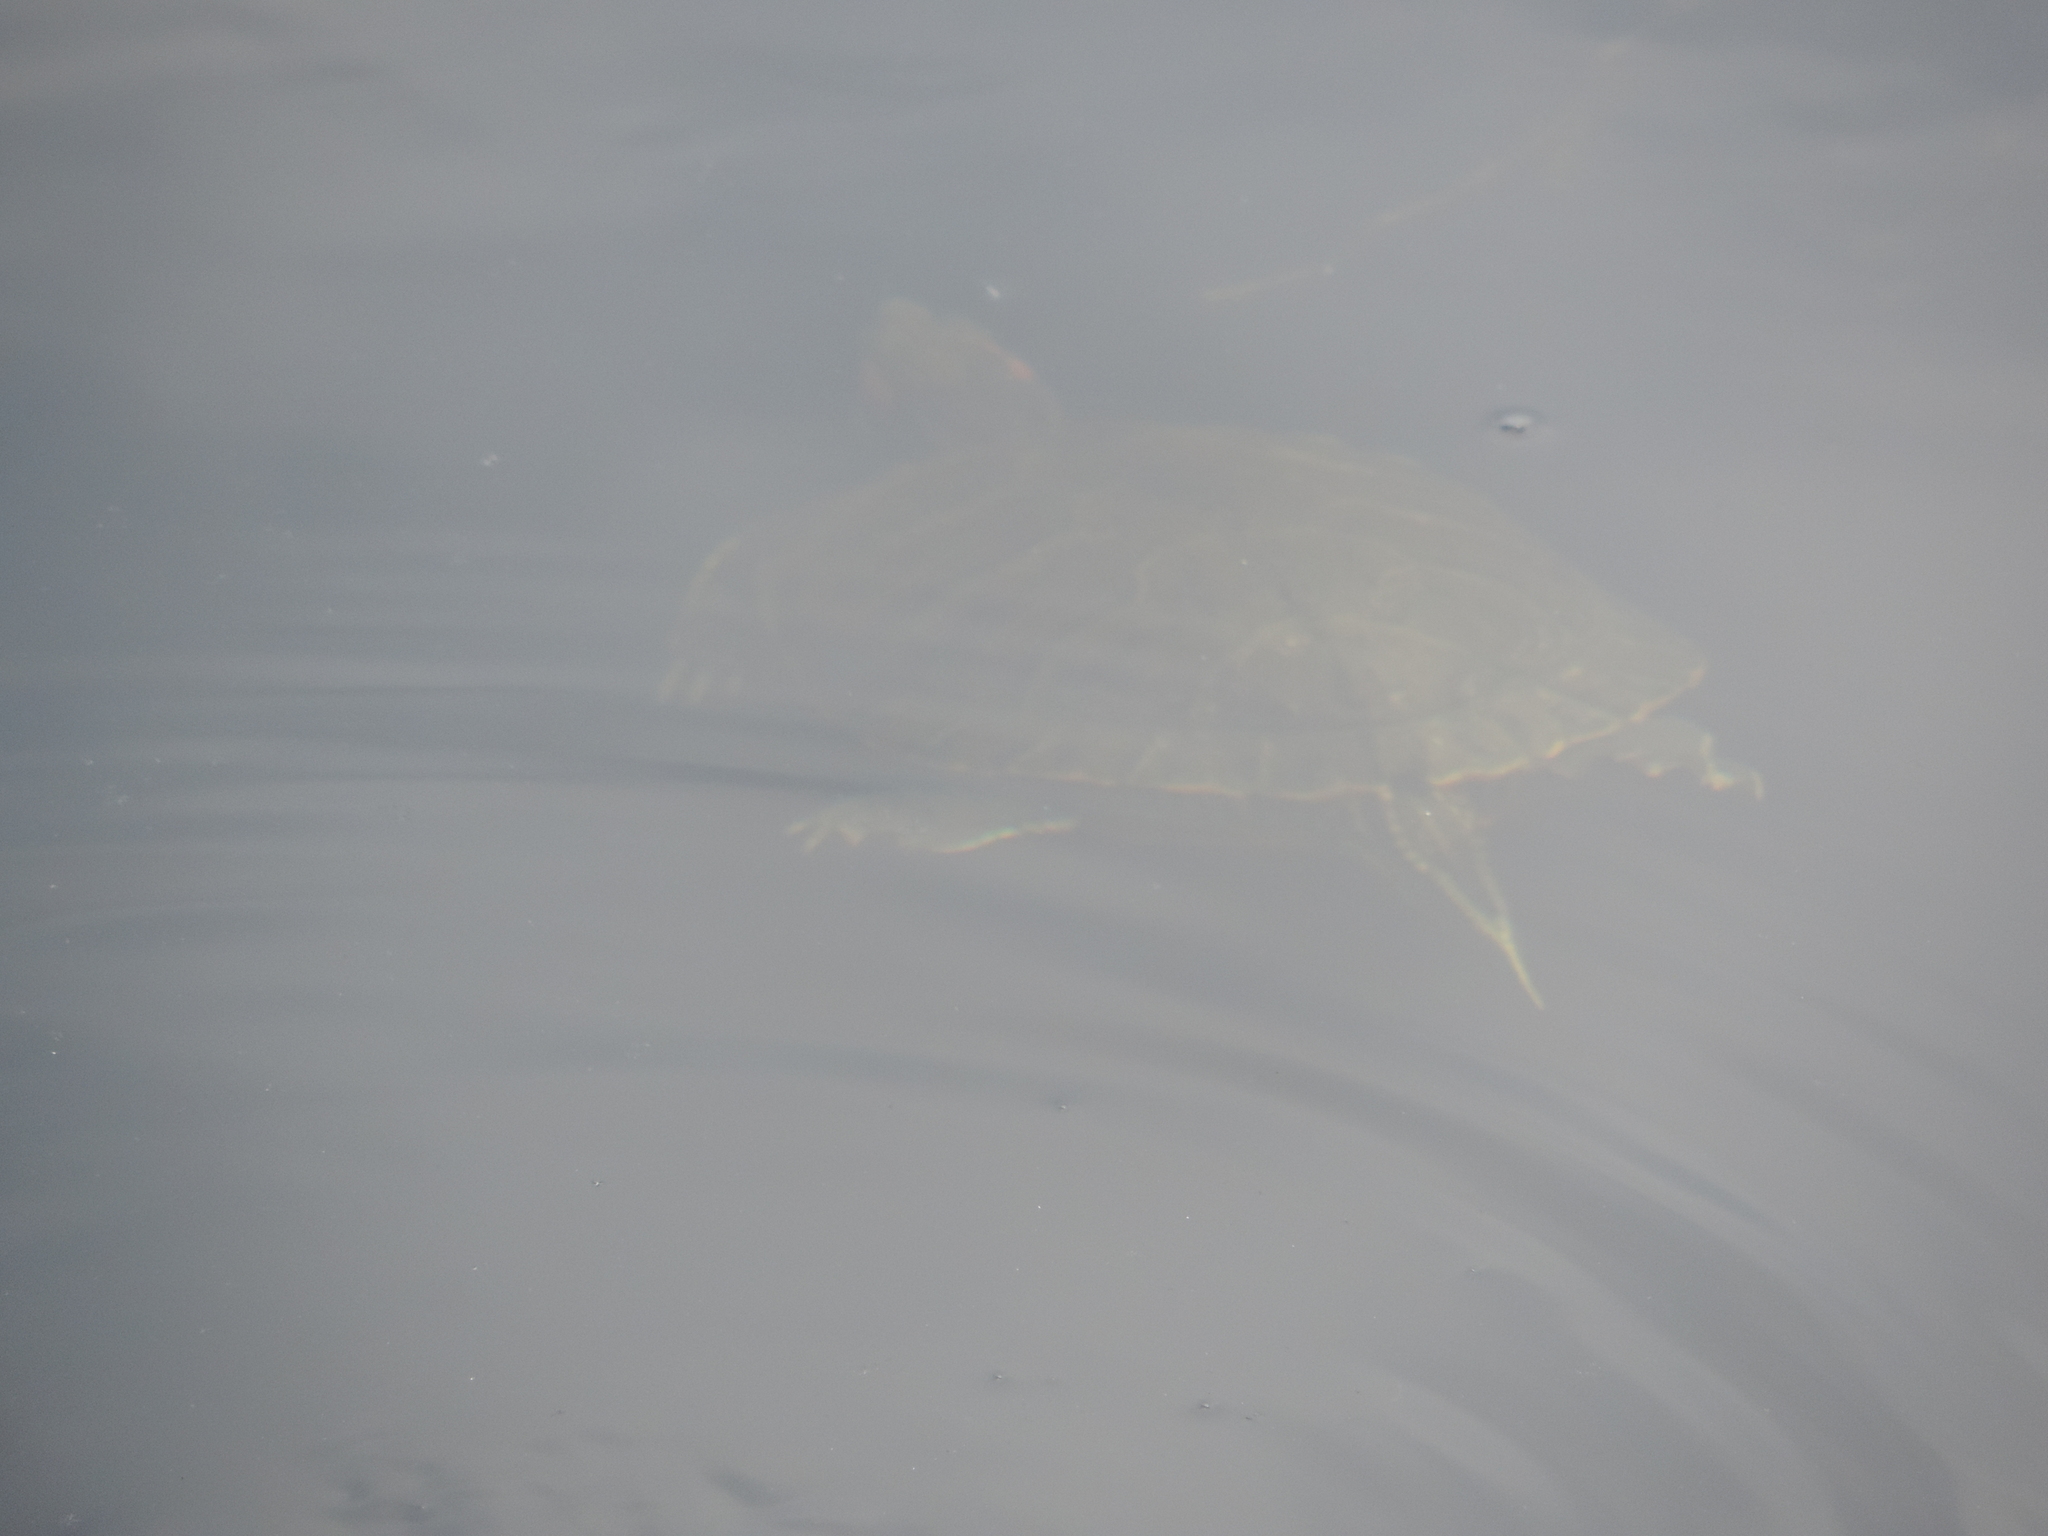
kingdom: Animalia
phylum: Chordata
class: Testudines
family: Emydidae
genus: Trachemys
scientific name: Trachemys scripta
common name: Slider
